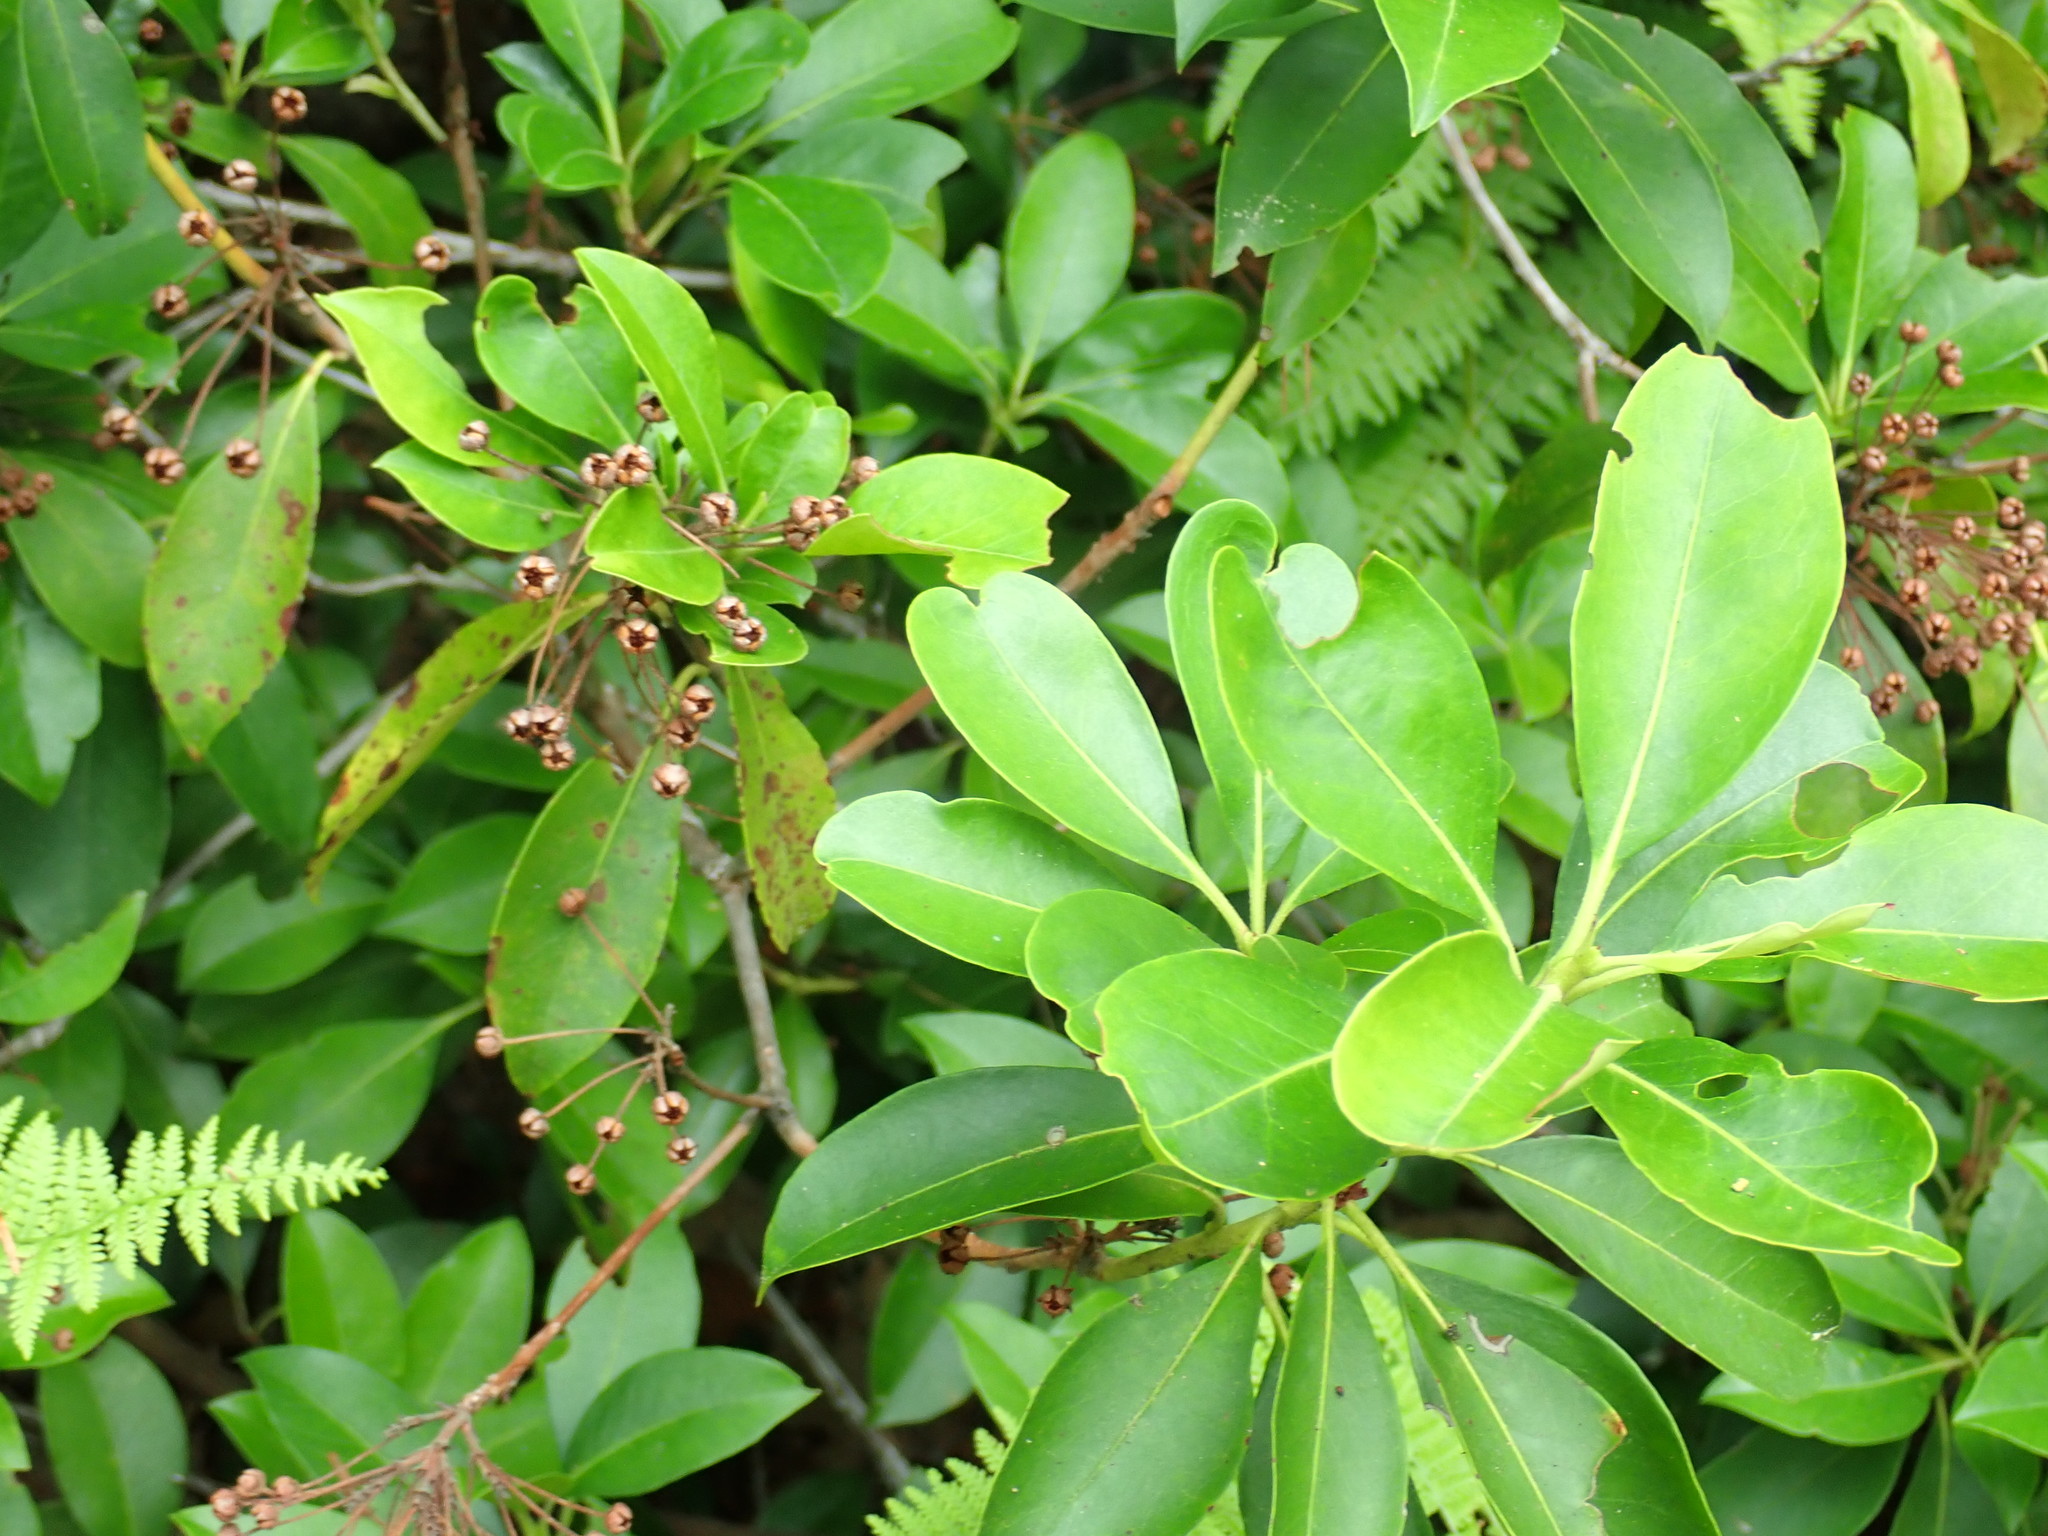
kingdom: Plantae
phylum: Tracheophyta
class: Magnoliopsida
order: Ericales
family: Ericaceae
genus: Kalmia
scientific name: Kalmia latifolia
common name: Mountain-laurel
